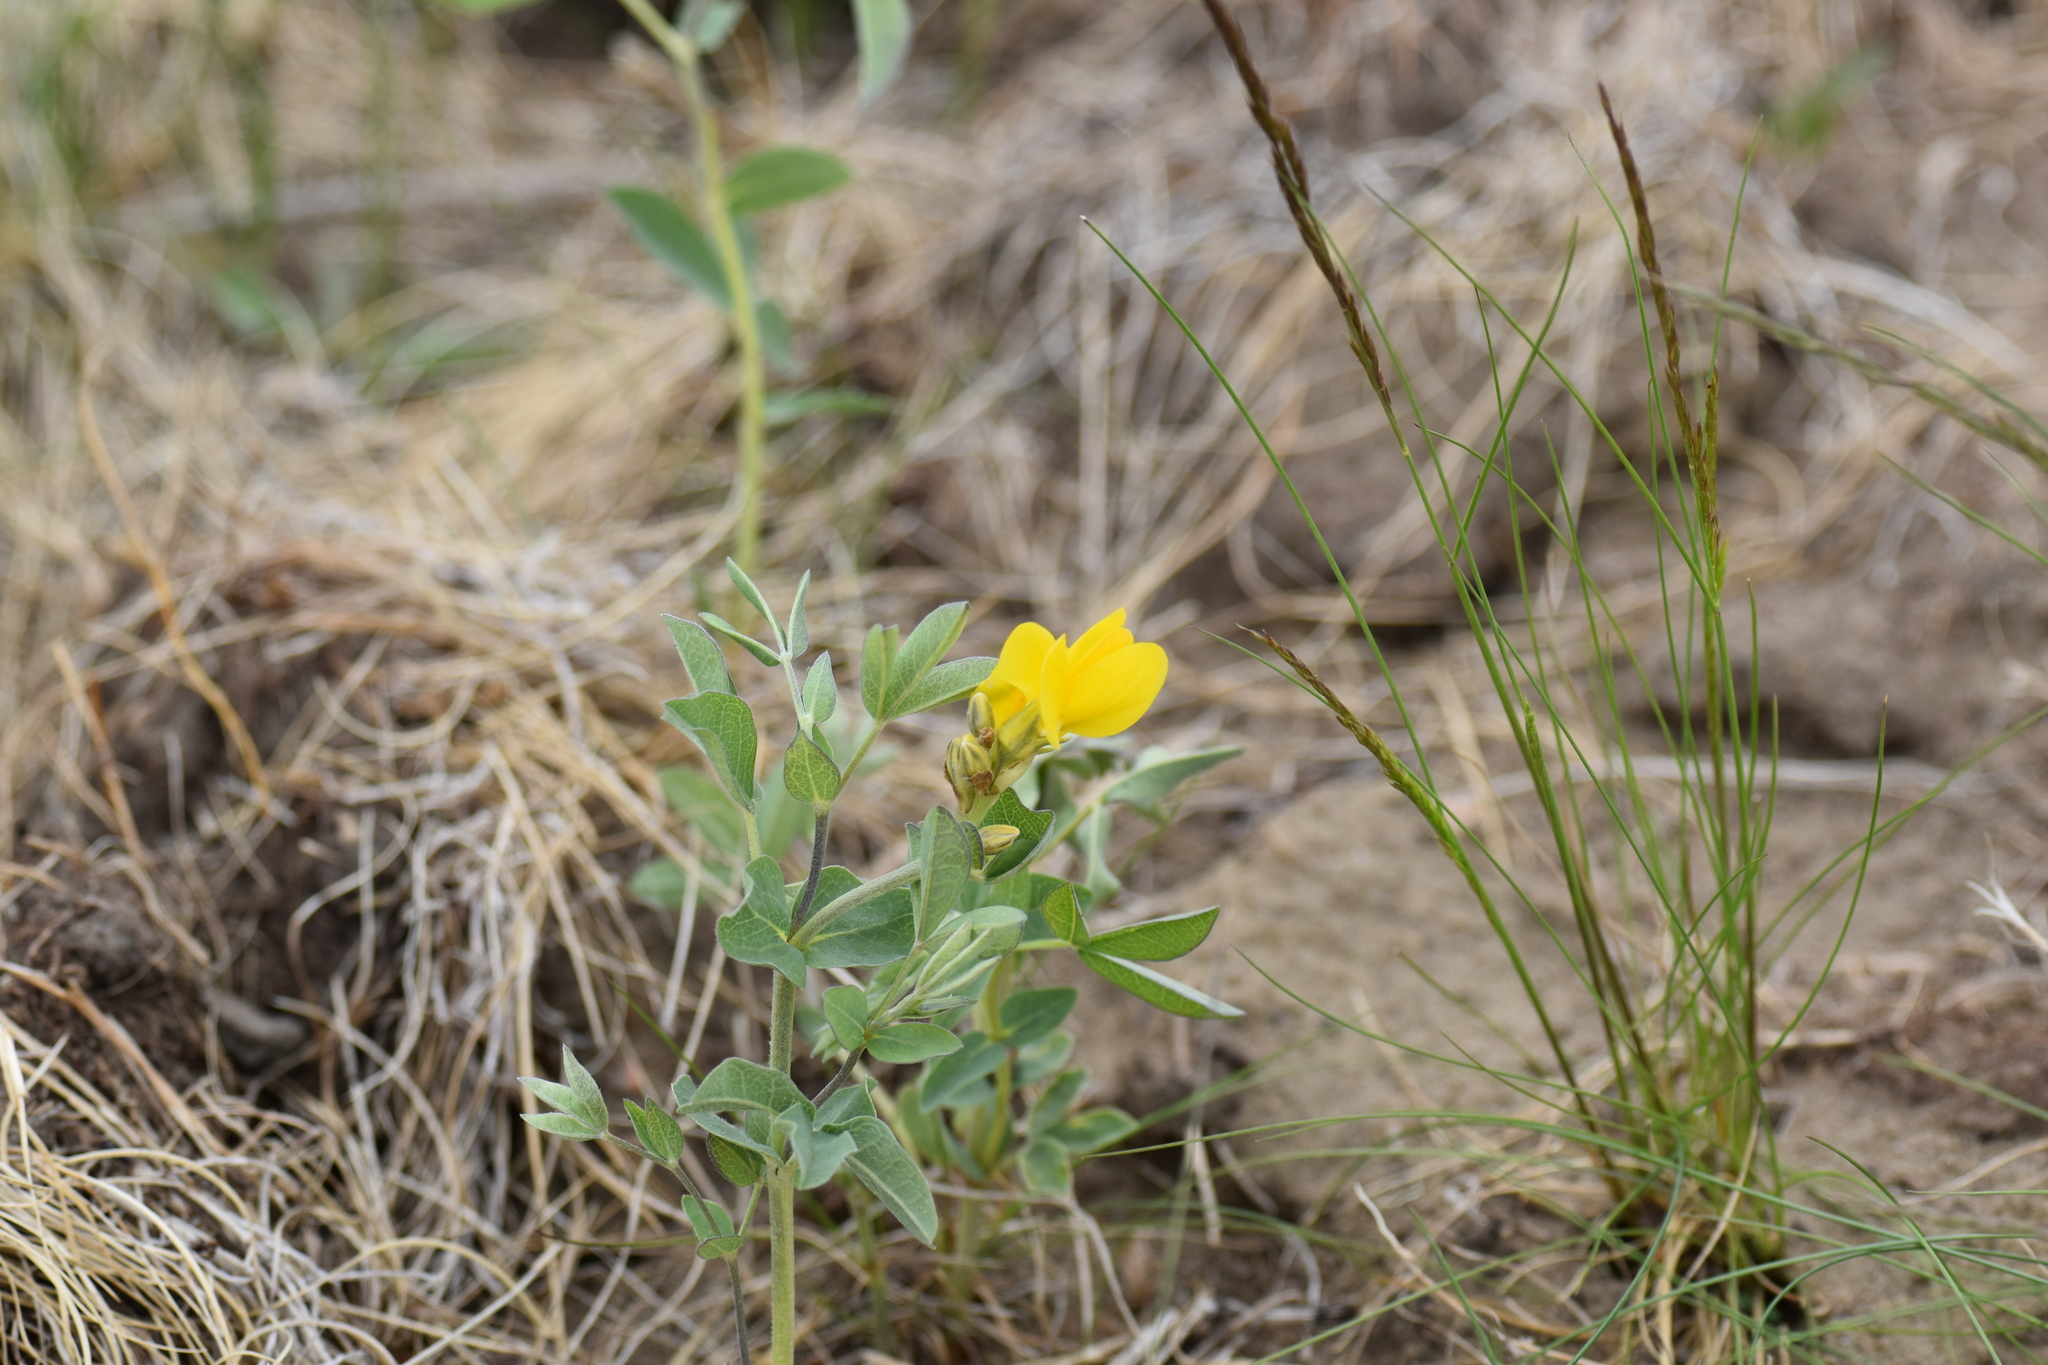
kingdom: Plantae
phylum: Tracheophyta
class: Magnoliopsida
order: Fabales
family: Fabaceae
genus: Thermopsis
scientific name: Thermopsis rhombifolia
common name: Circle-pod-pea
